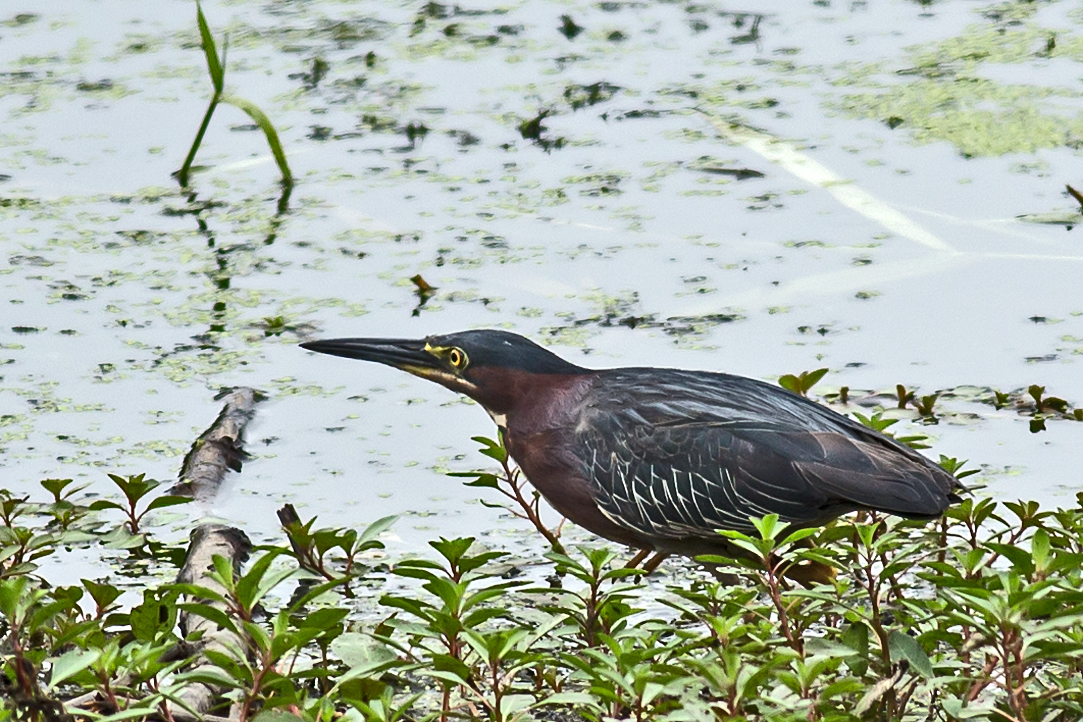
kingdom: Animalia
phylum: Chordata
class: Aves
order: Pelecaniformes
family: Ardeidae
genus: Butorides
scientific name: Butorides virescens
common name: Green heron
